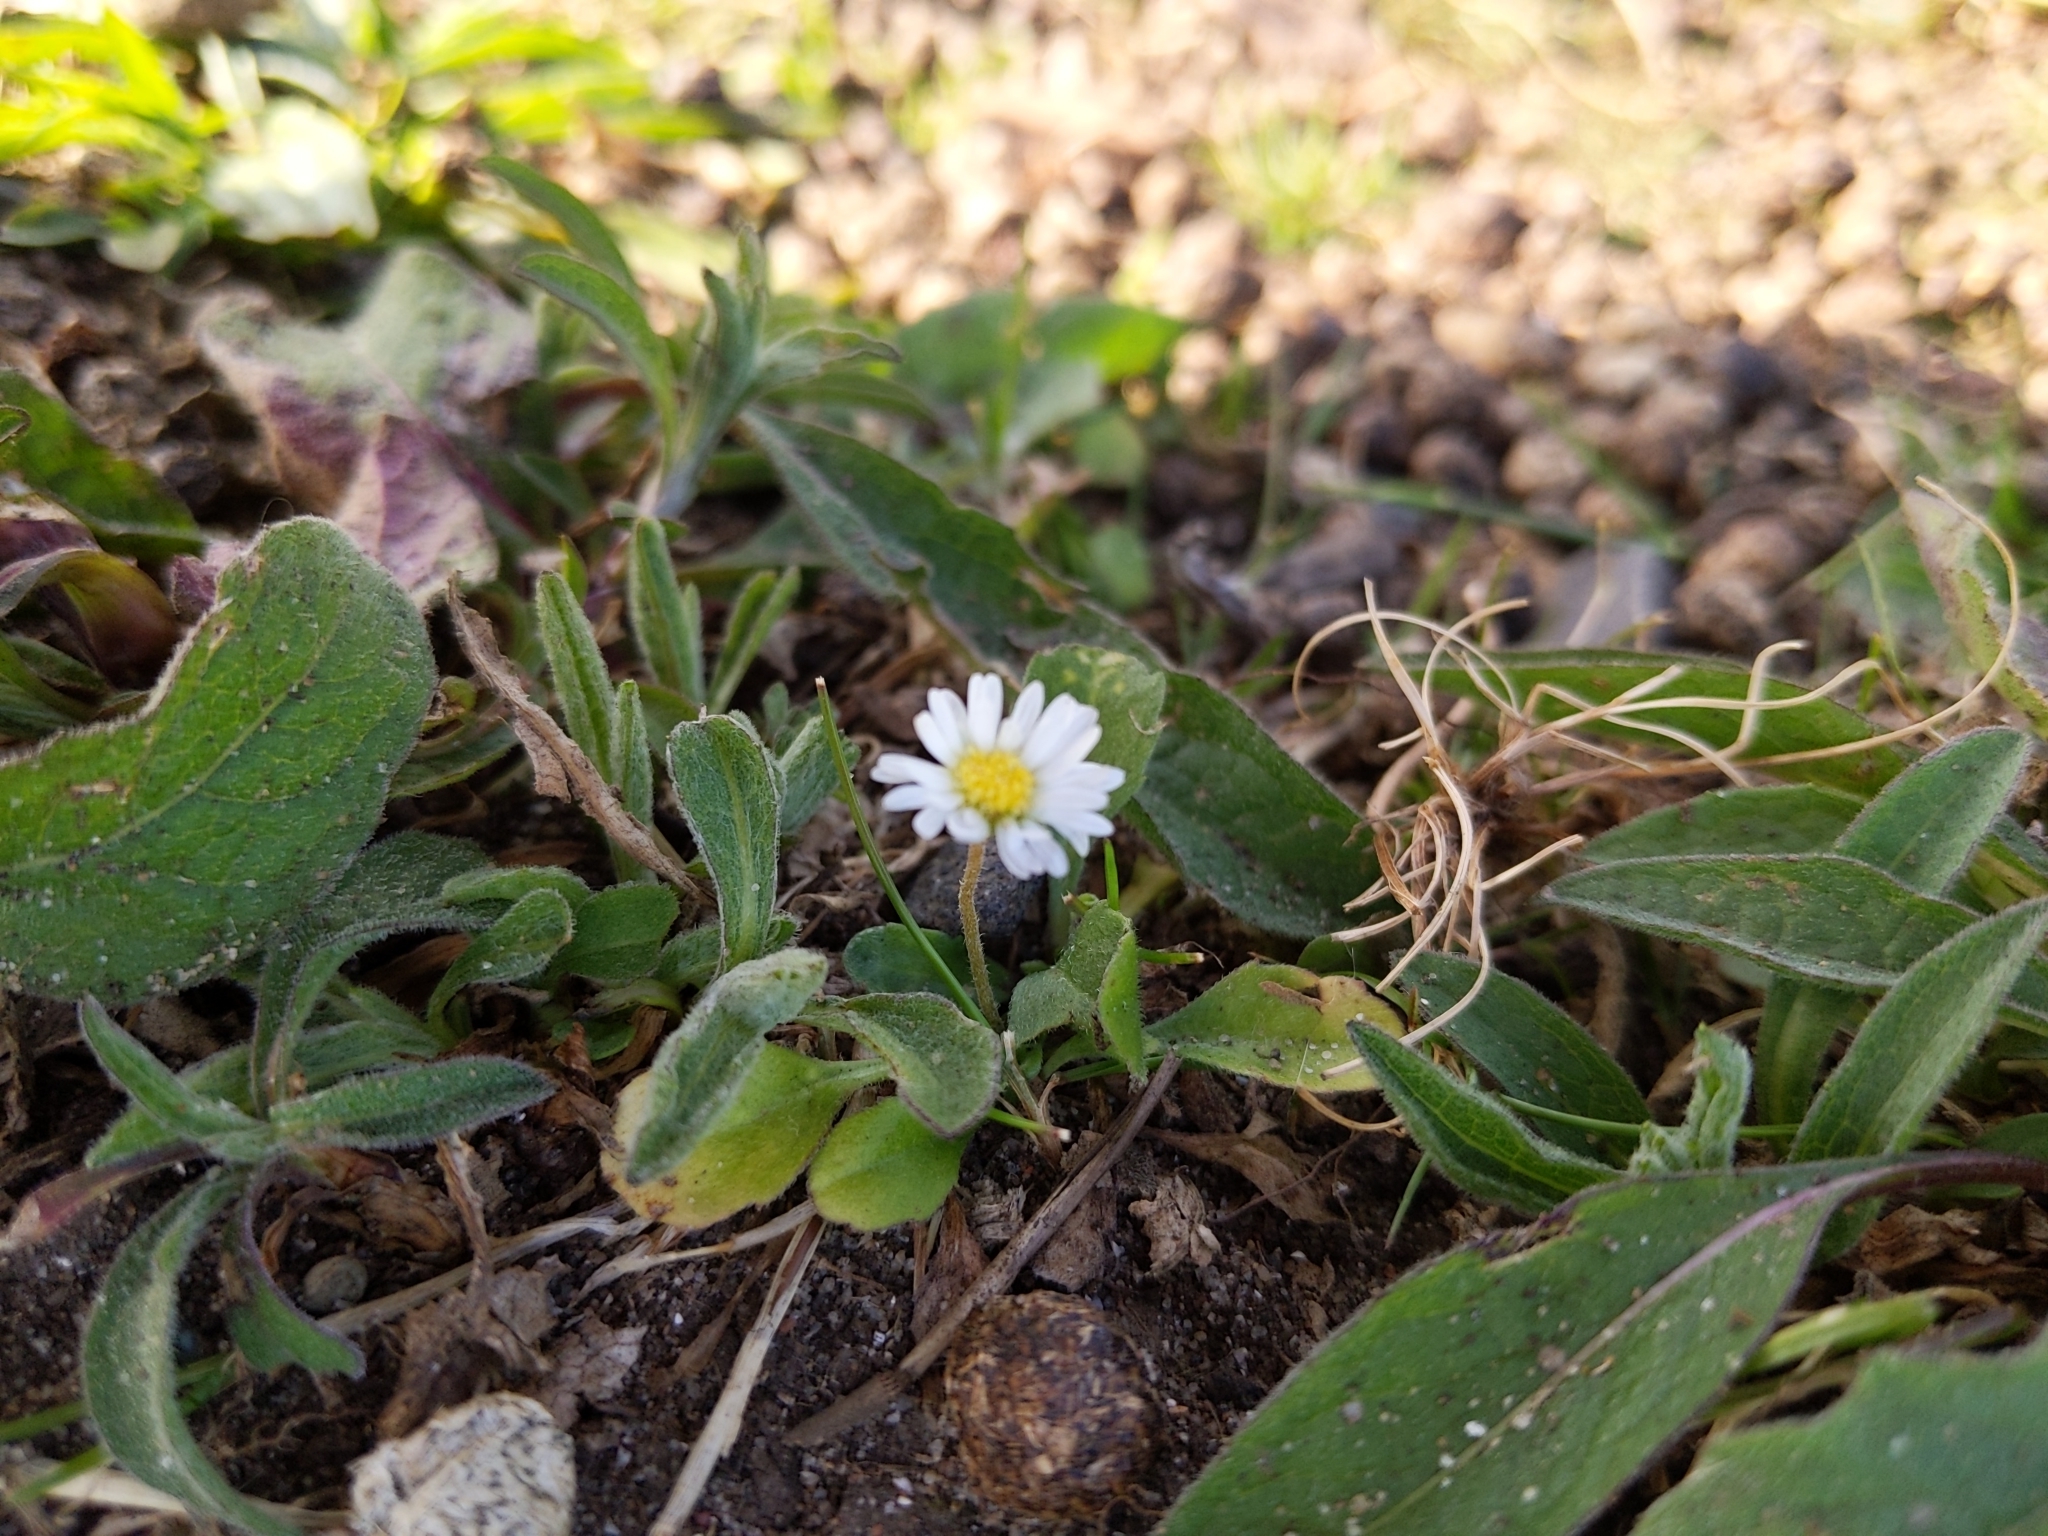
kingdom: Plantae
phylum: Tracheophyta
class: Magnoliopsida
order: Asterales
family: Asteraceae
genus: Bellis
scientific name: Bellis perennis
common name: Lawndaisy
